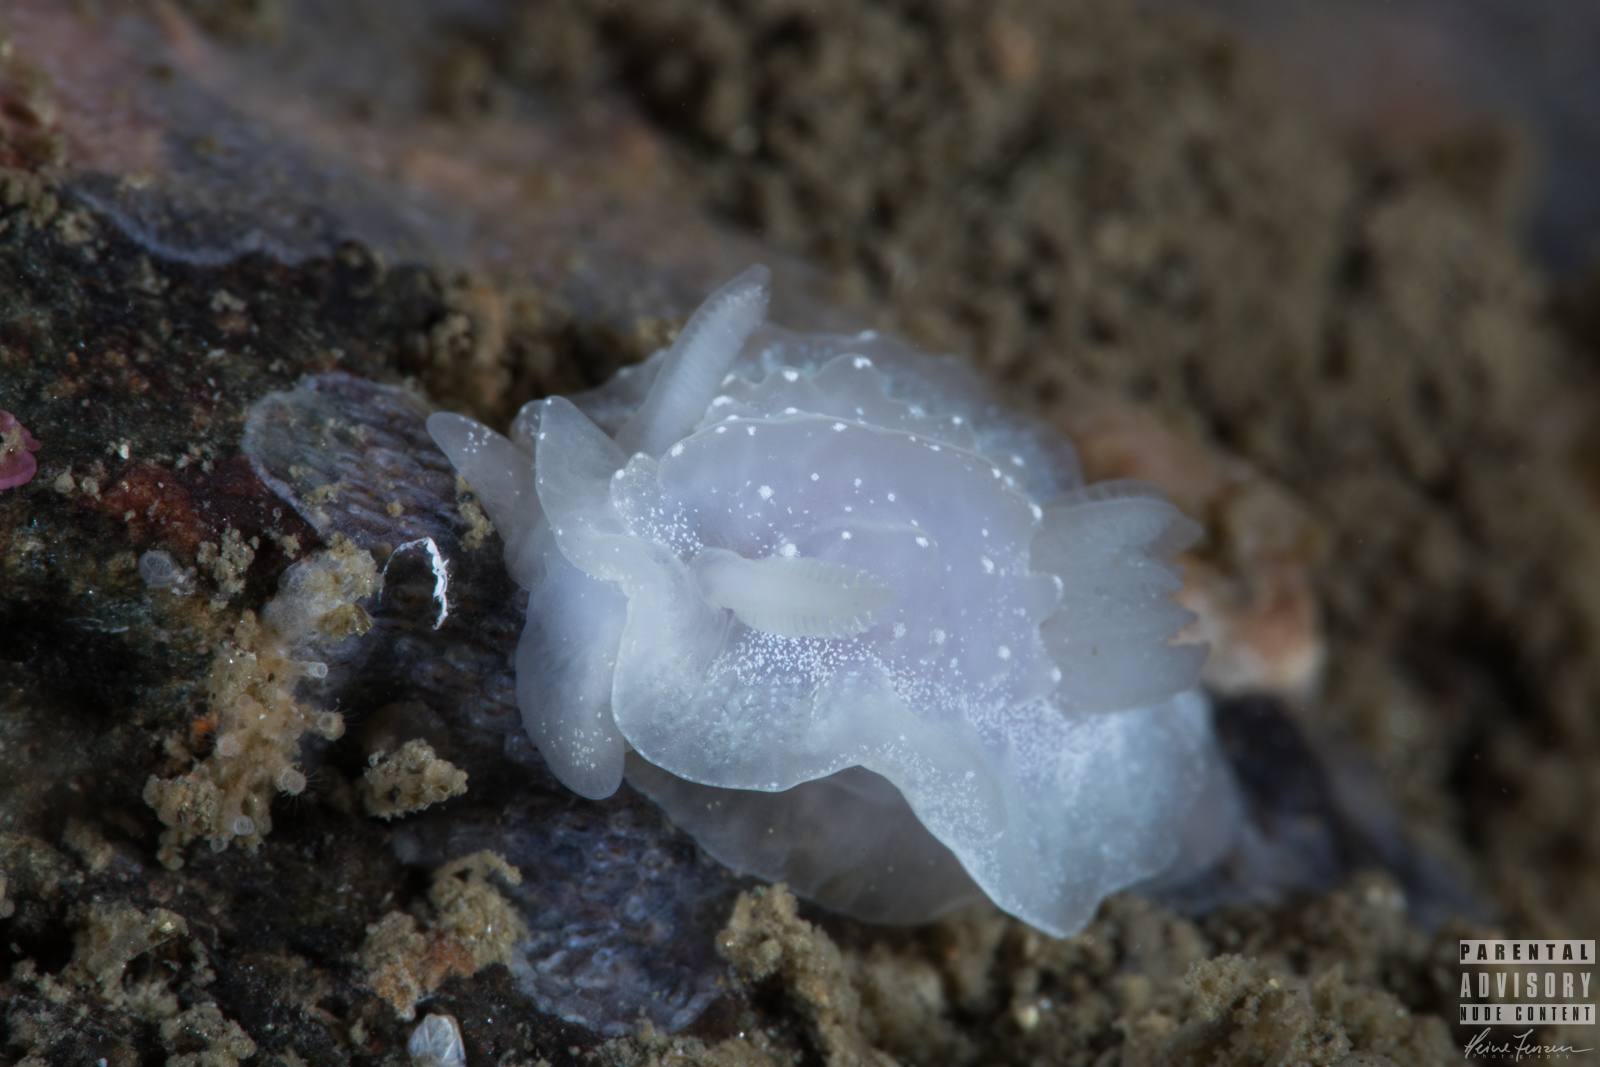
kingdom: Animalia
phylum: Mollusca
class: Gastropoda
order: Nudibranchia
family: Goniodorididae
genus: Okenia
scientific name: Okenia
